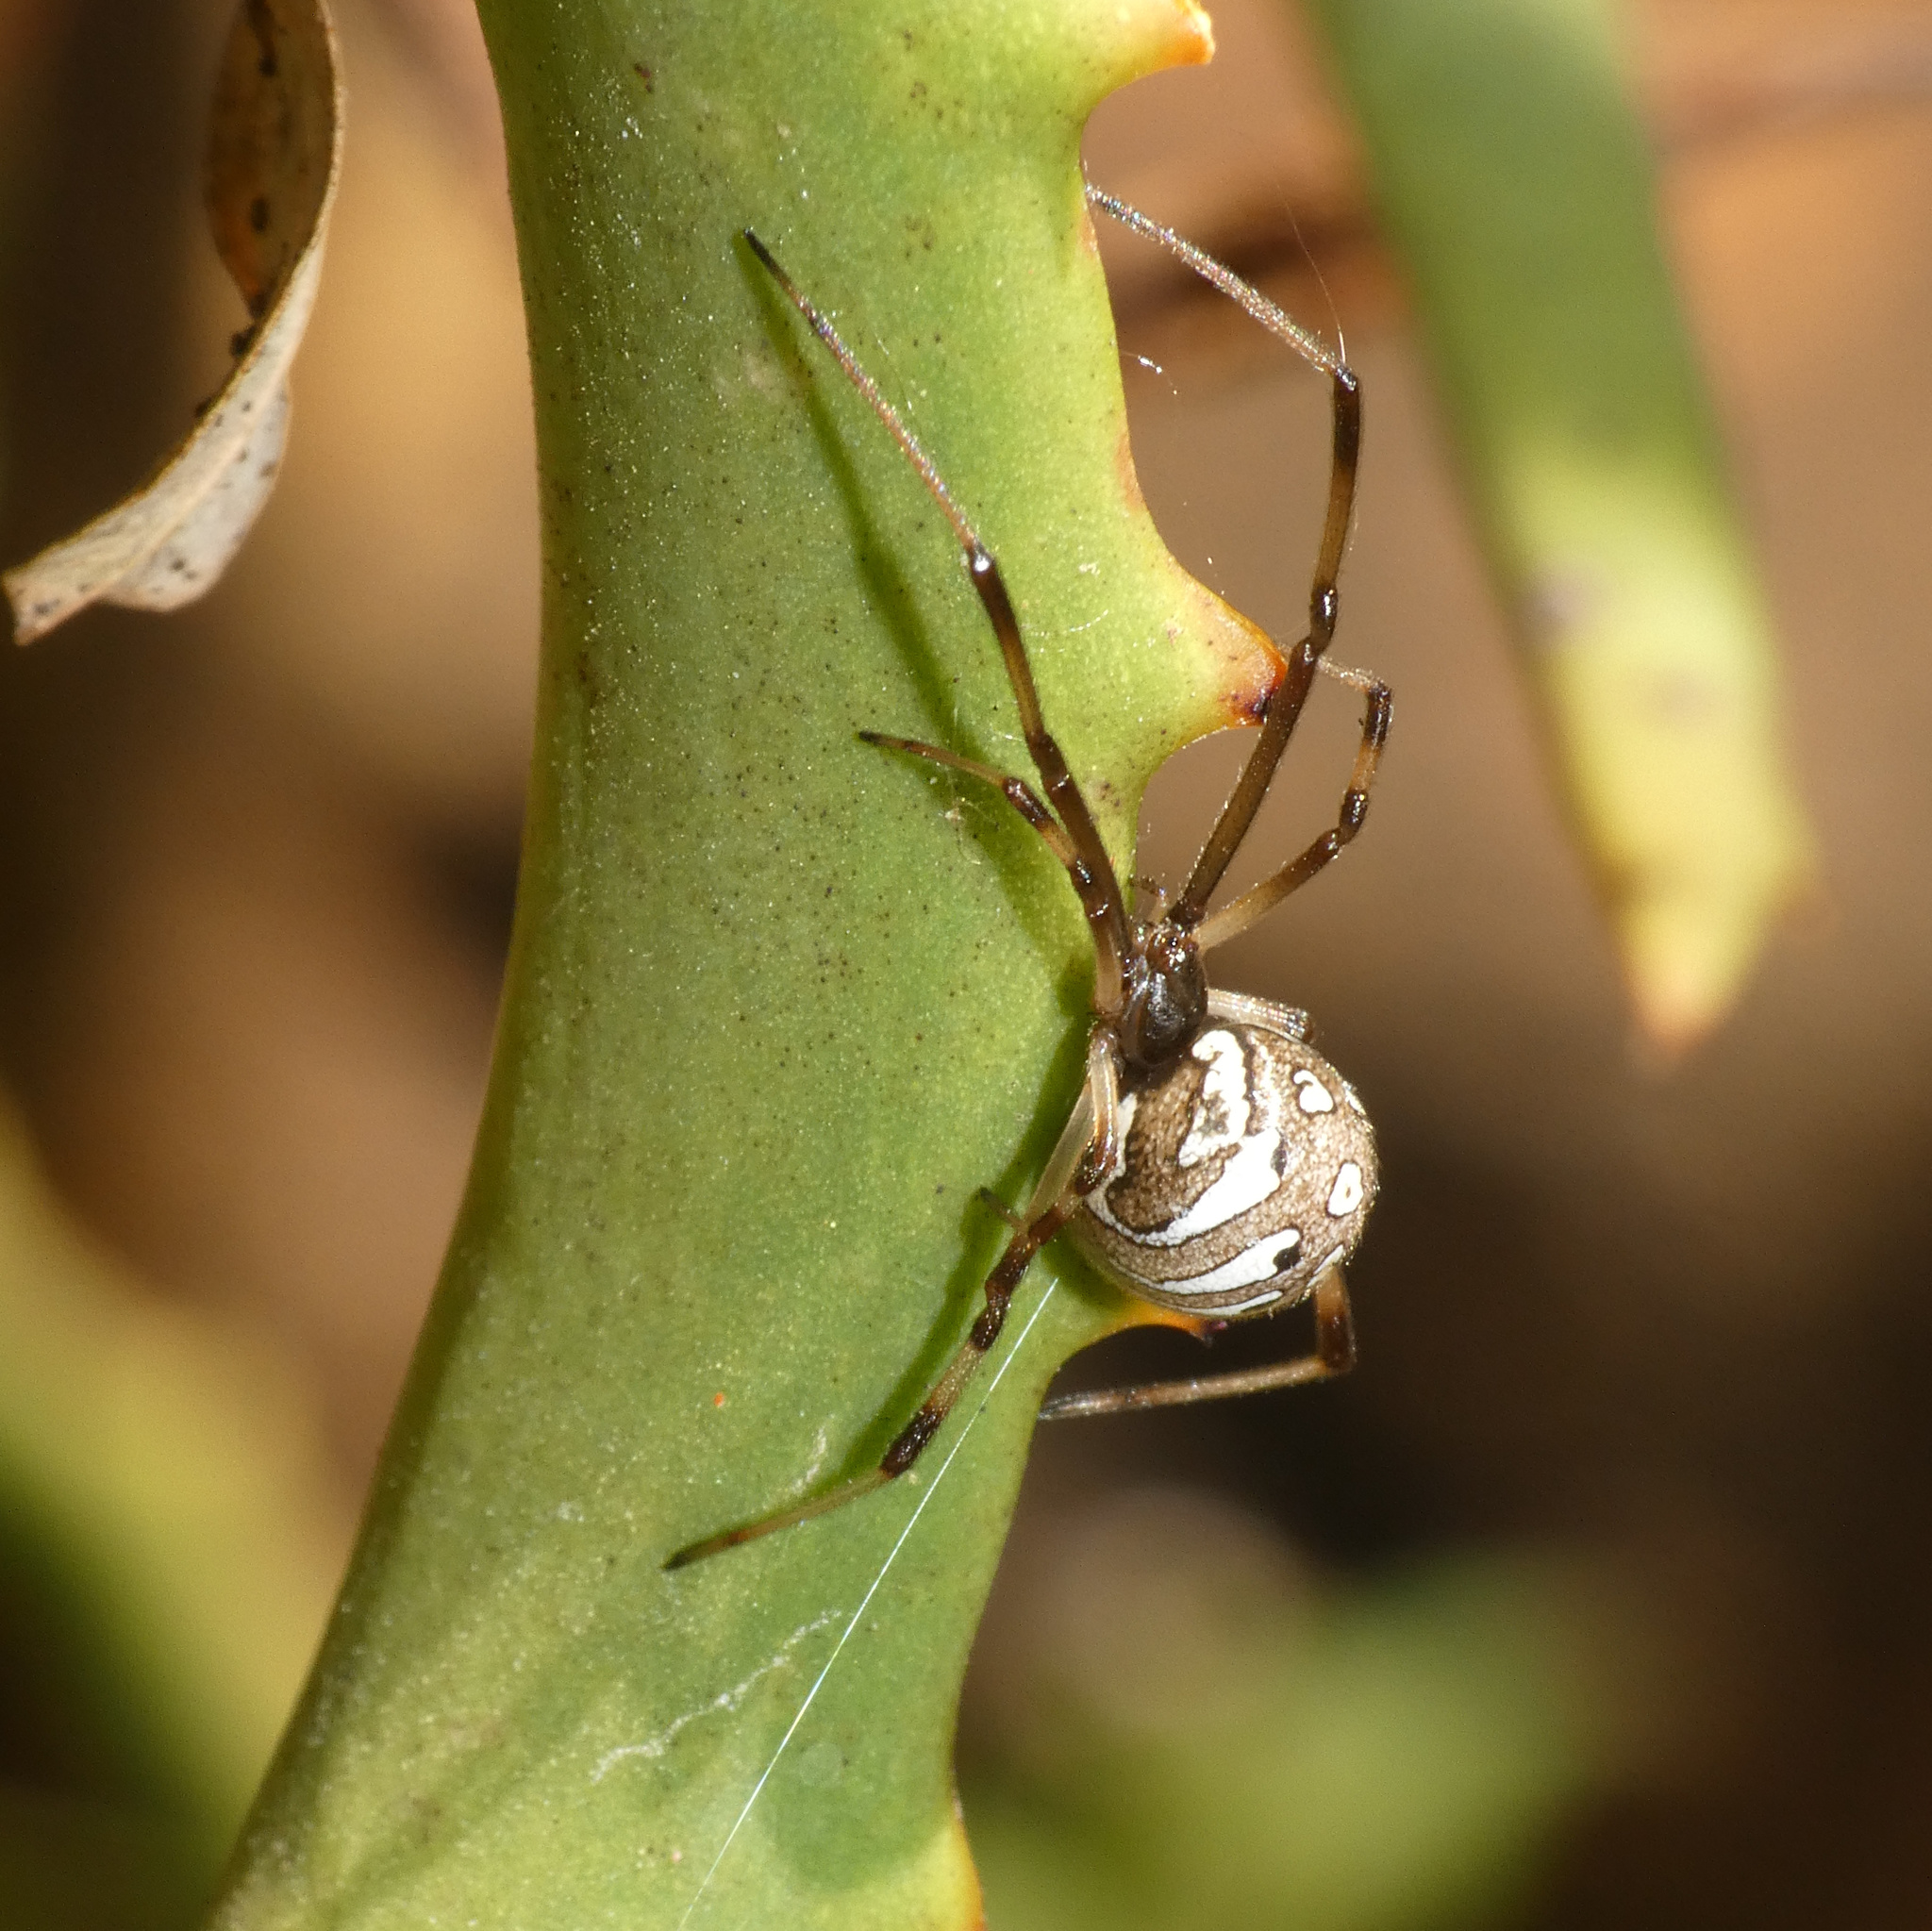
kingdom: Animalia
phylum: Arthropoda
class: Arachnida
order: Araneae
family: Theridiidae
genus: Latrodectus
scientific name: Latrodectus rhodesiensis
